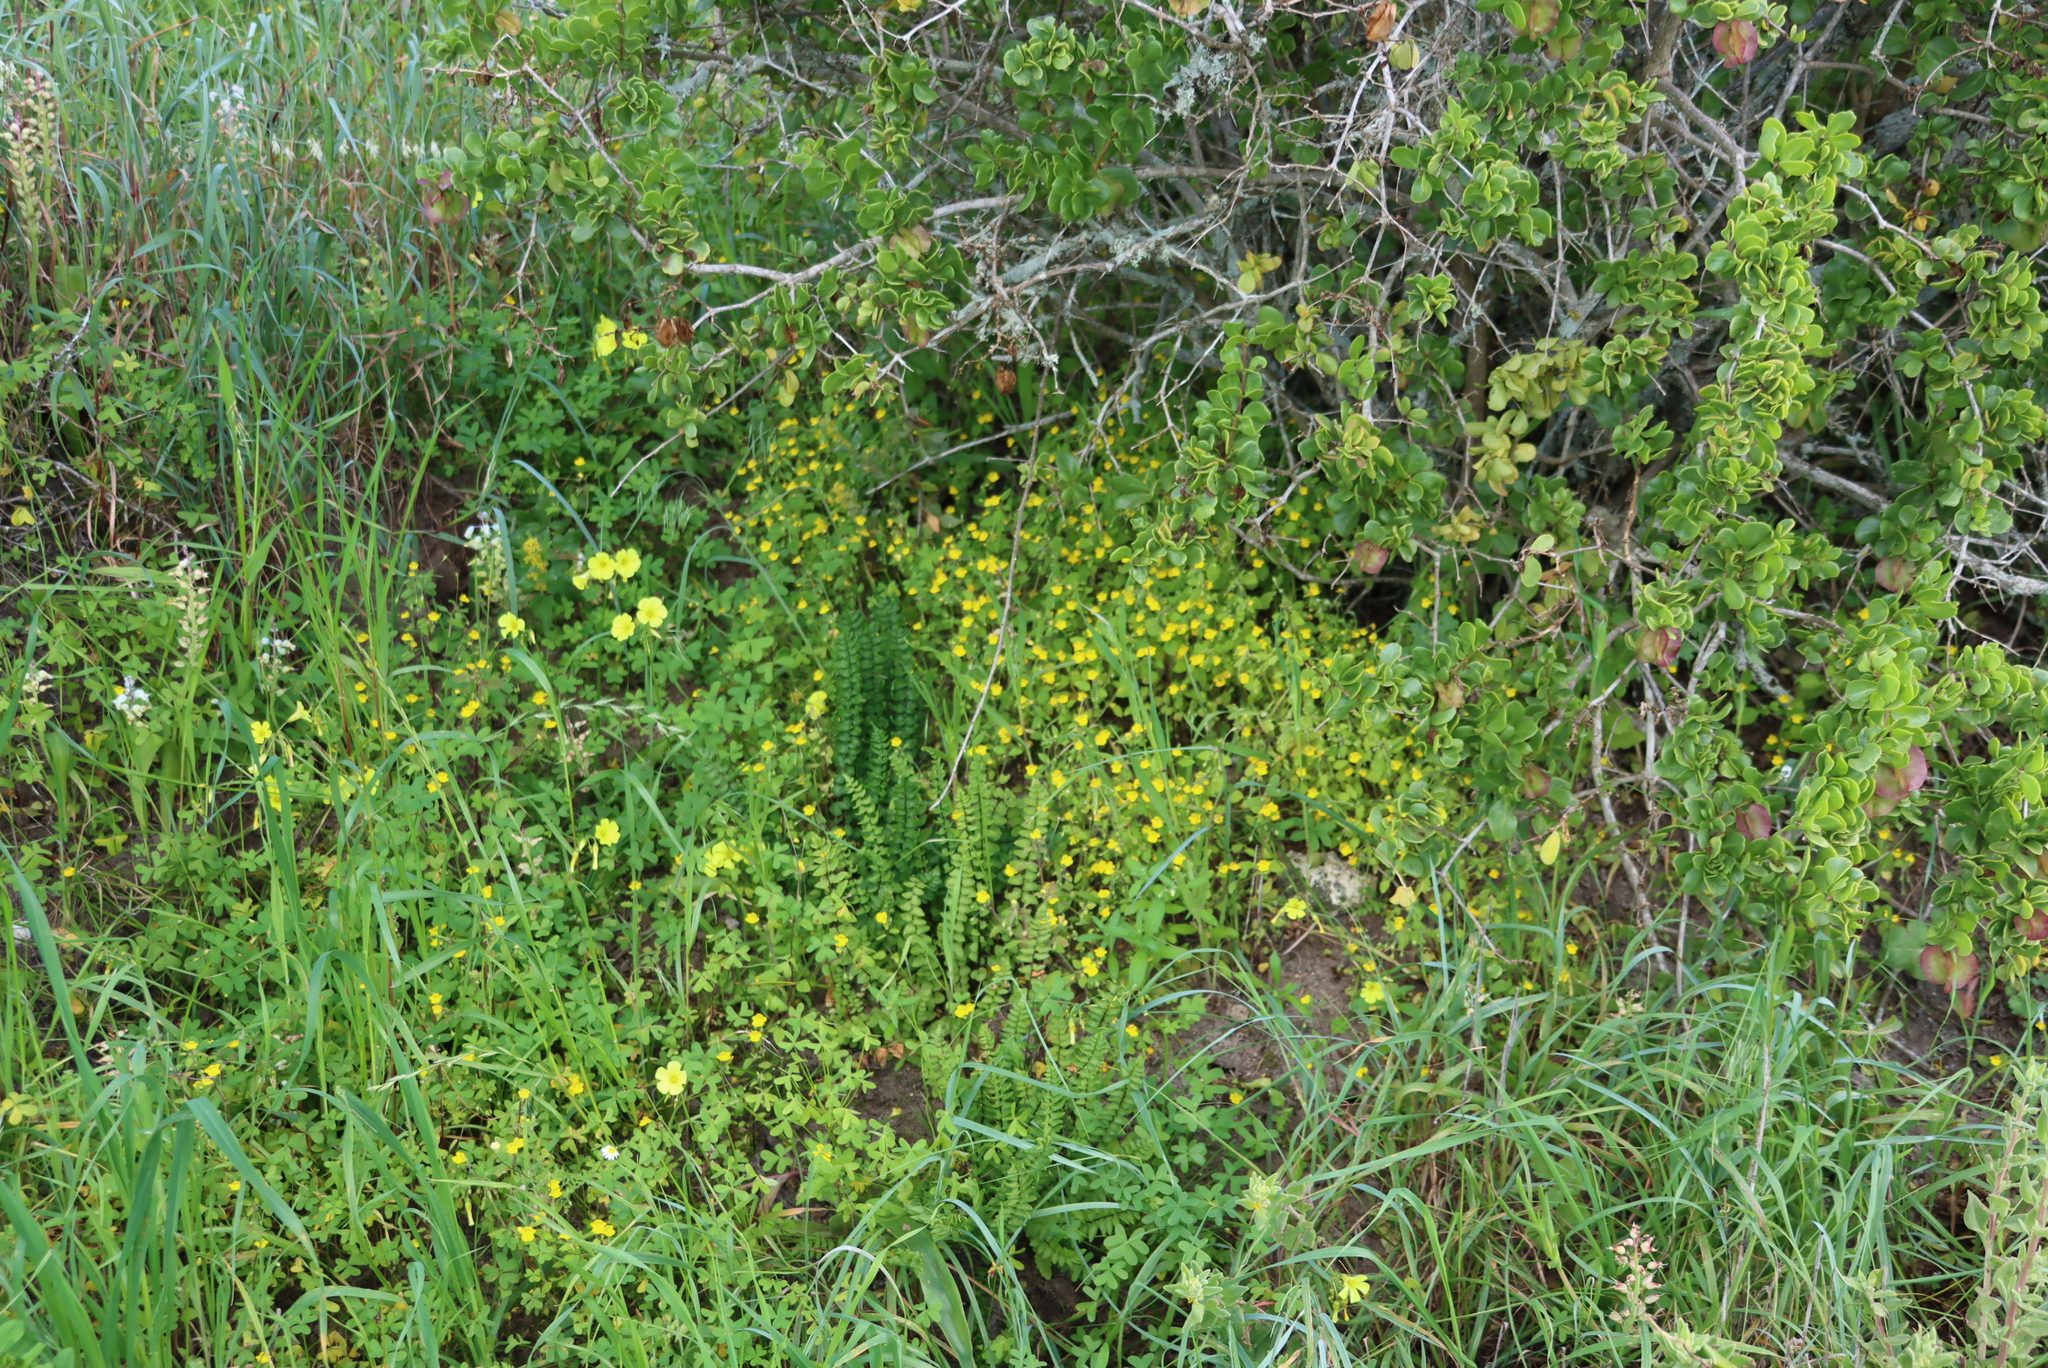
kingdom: Plantae
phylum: Tracheophyta
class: Polypodiopsida
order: Polypodiales
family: Pteridaceae
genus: Cheilanthes
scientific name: Cheilanthes hastata
